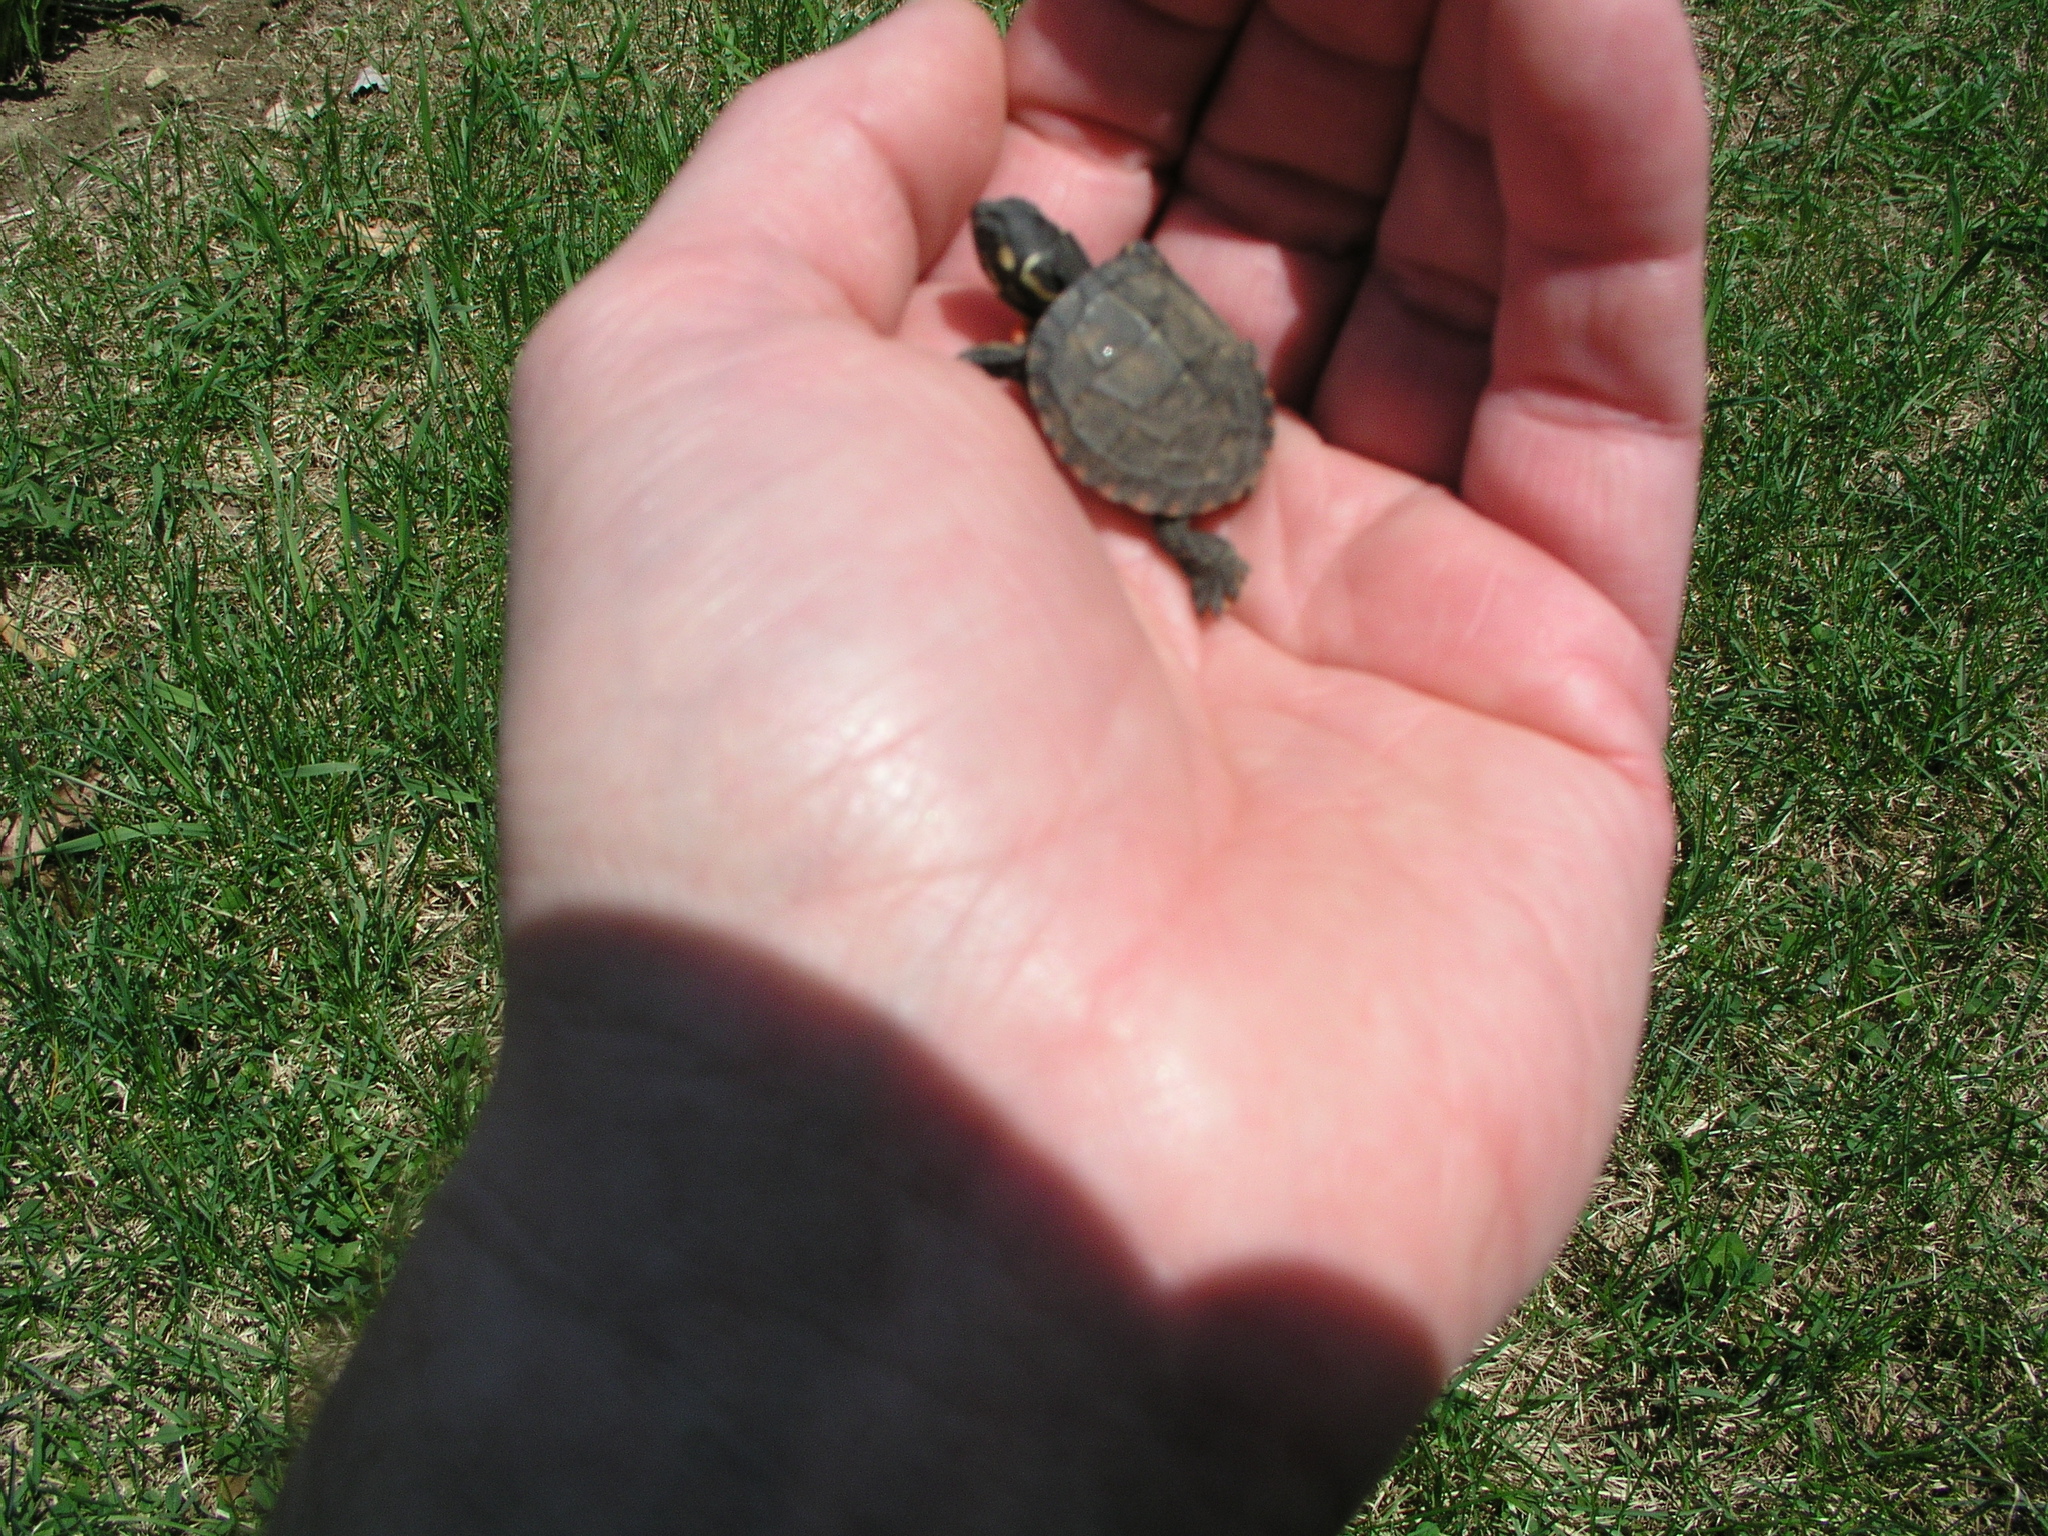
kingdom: Animalia
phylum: Chordata
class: Testudines
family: Emydidae
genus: Chrysemys
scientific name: Chrysemys picta
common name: Painted turtle
